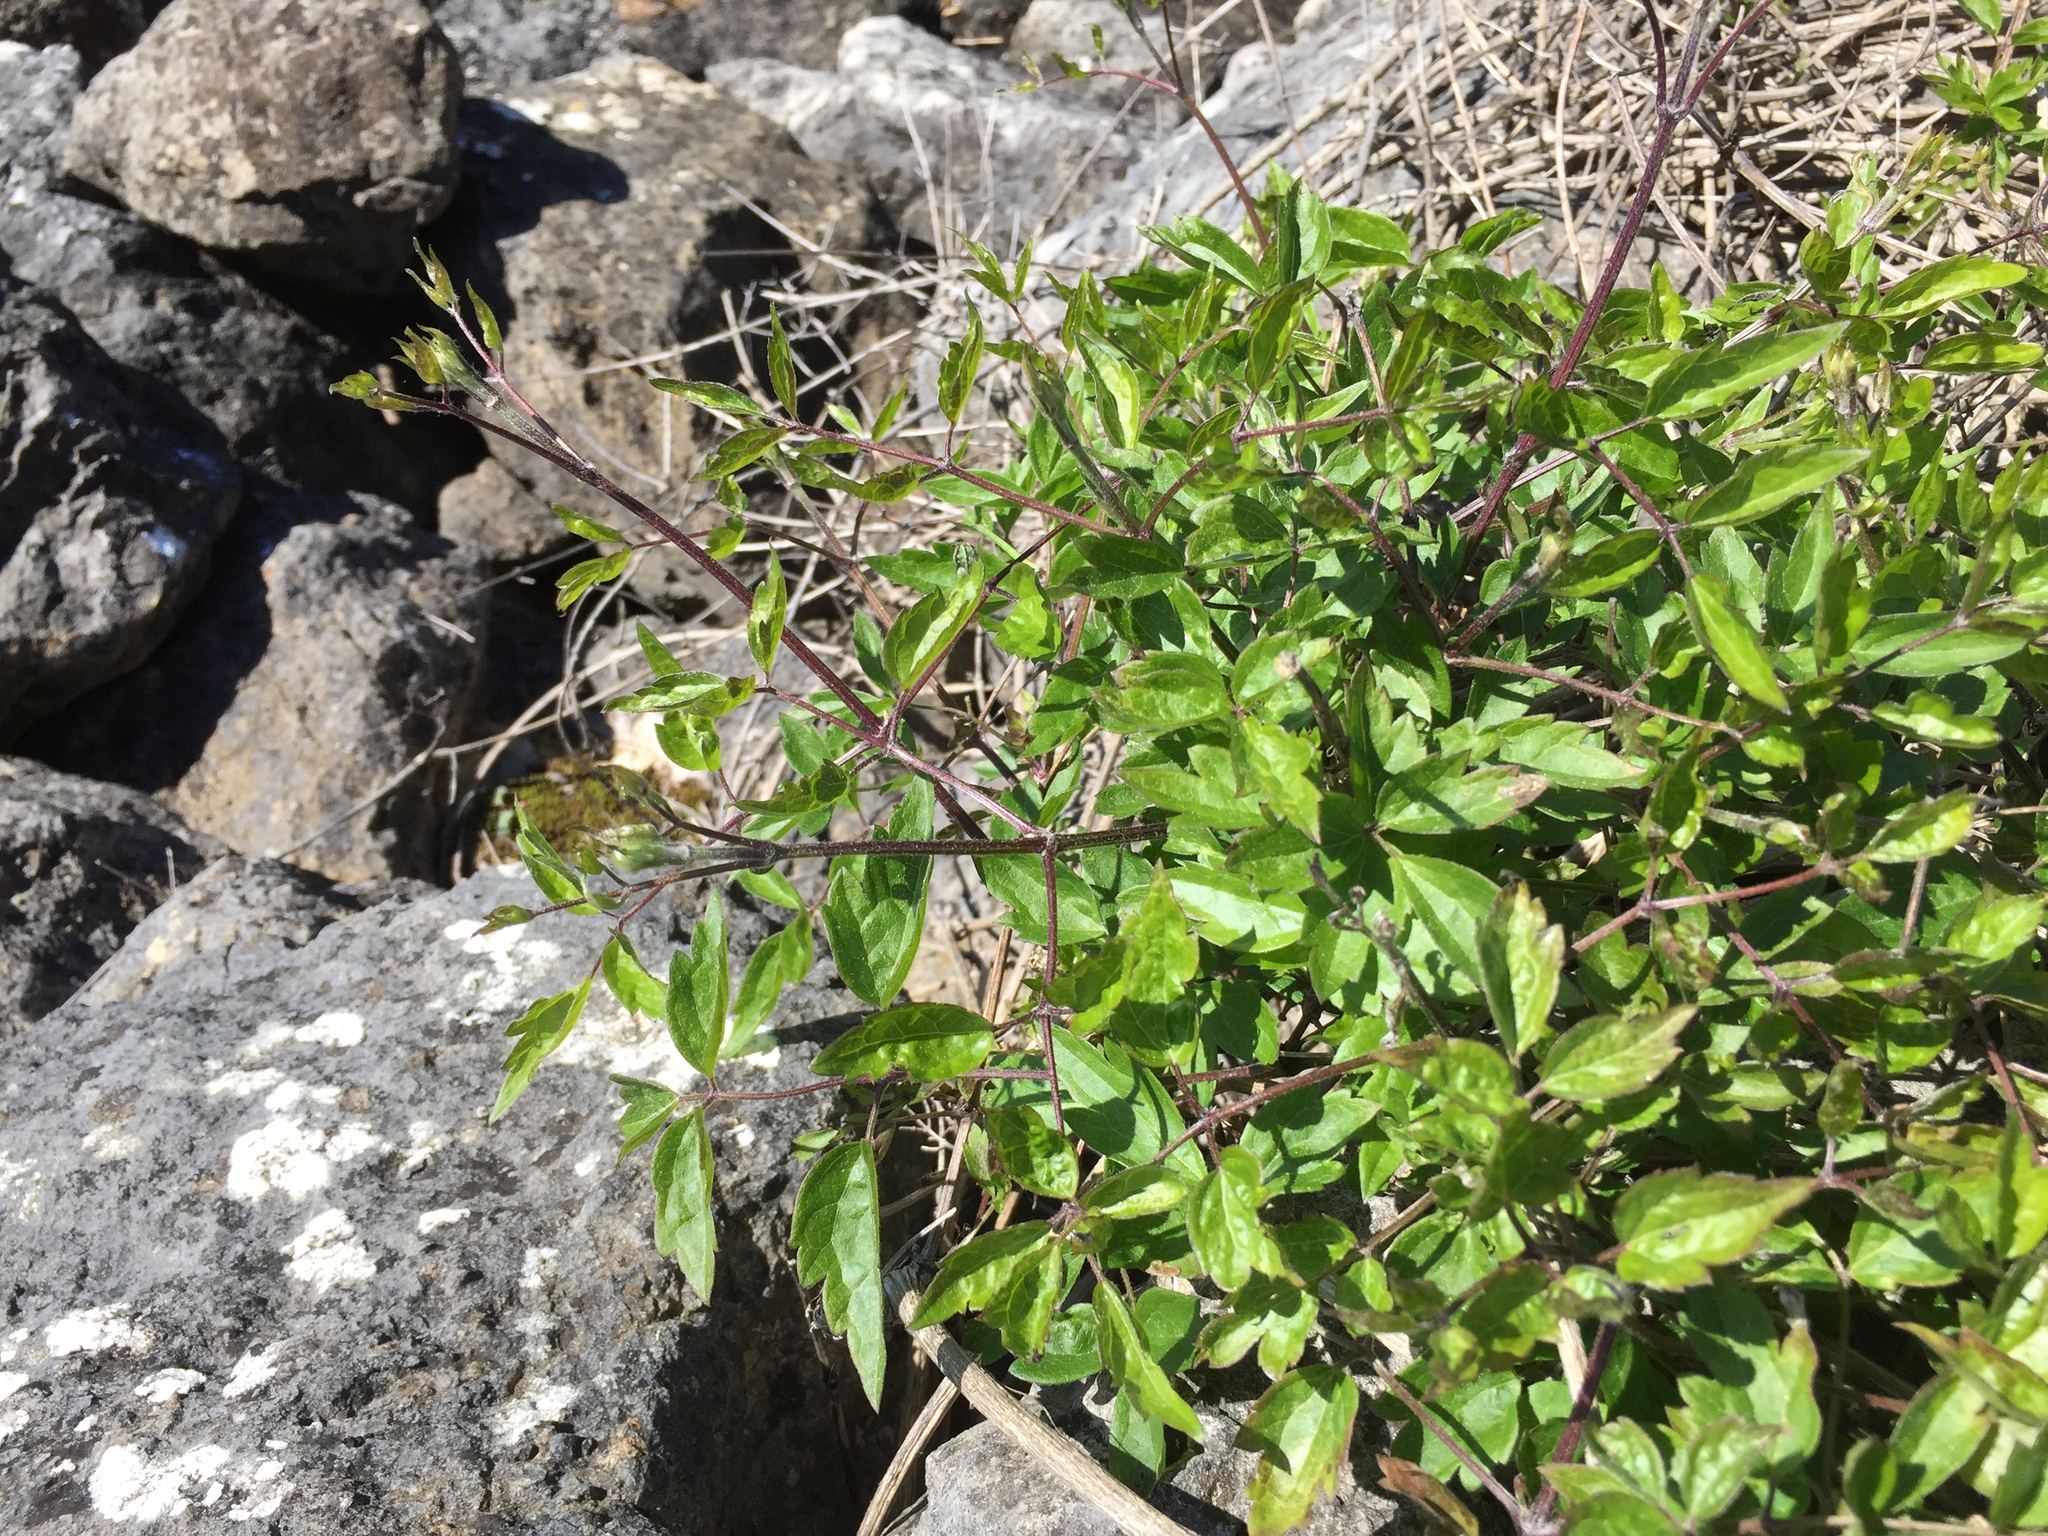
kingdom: Plantae
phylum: Tracheophyta
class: Magnoliopsida
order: Ranunculales
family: Ranunculaceae
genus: Clematis
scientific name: Clematis vitalba
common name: Evergreen clematis
